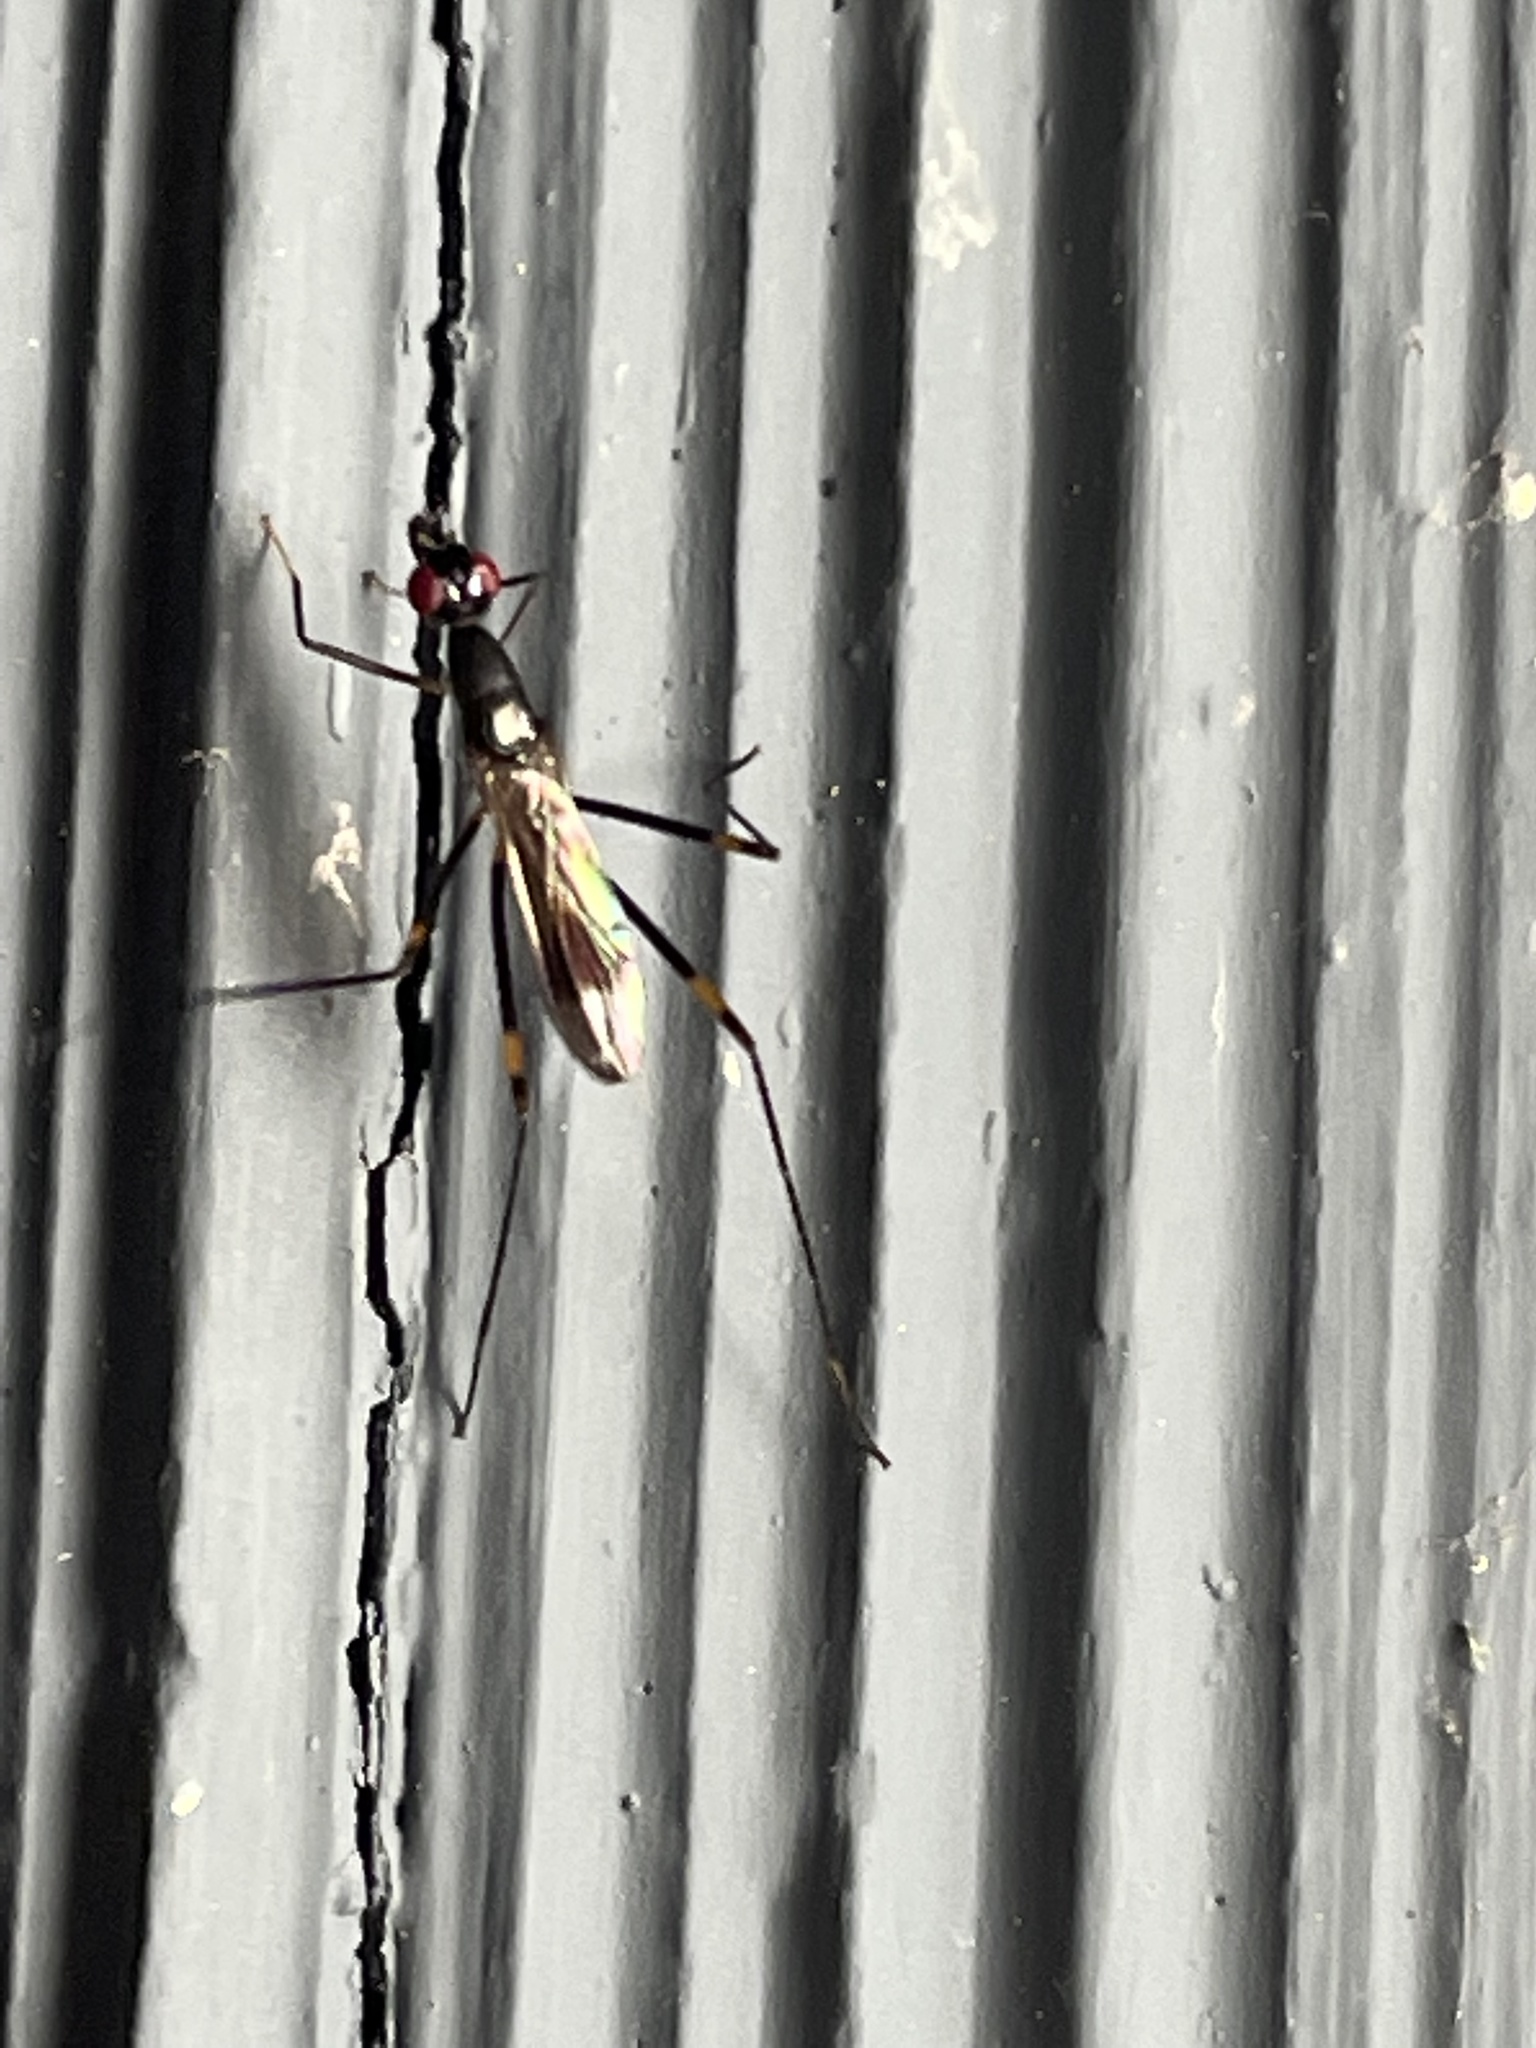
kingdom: Animalia
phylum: Arthropoda
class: Insecta
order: Diptera
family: Micropezidae
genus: Rainieria
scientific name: Rainieria antennaepes
